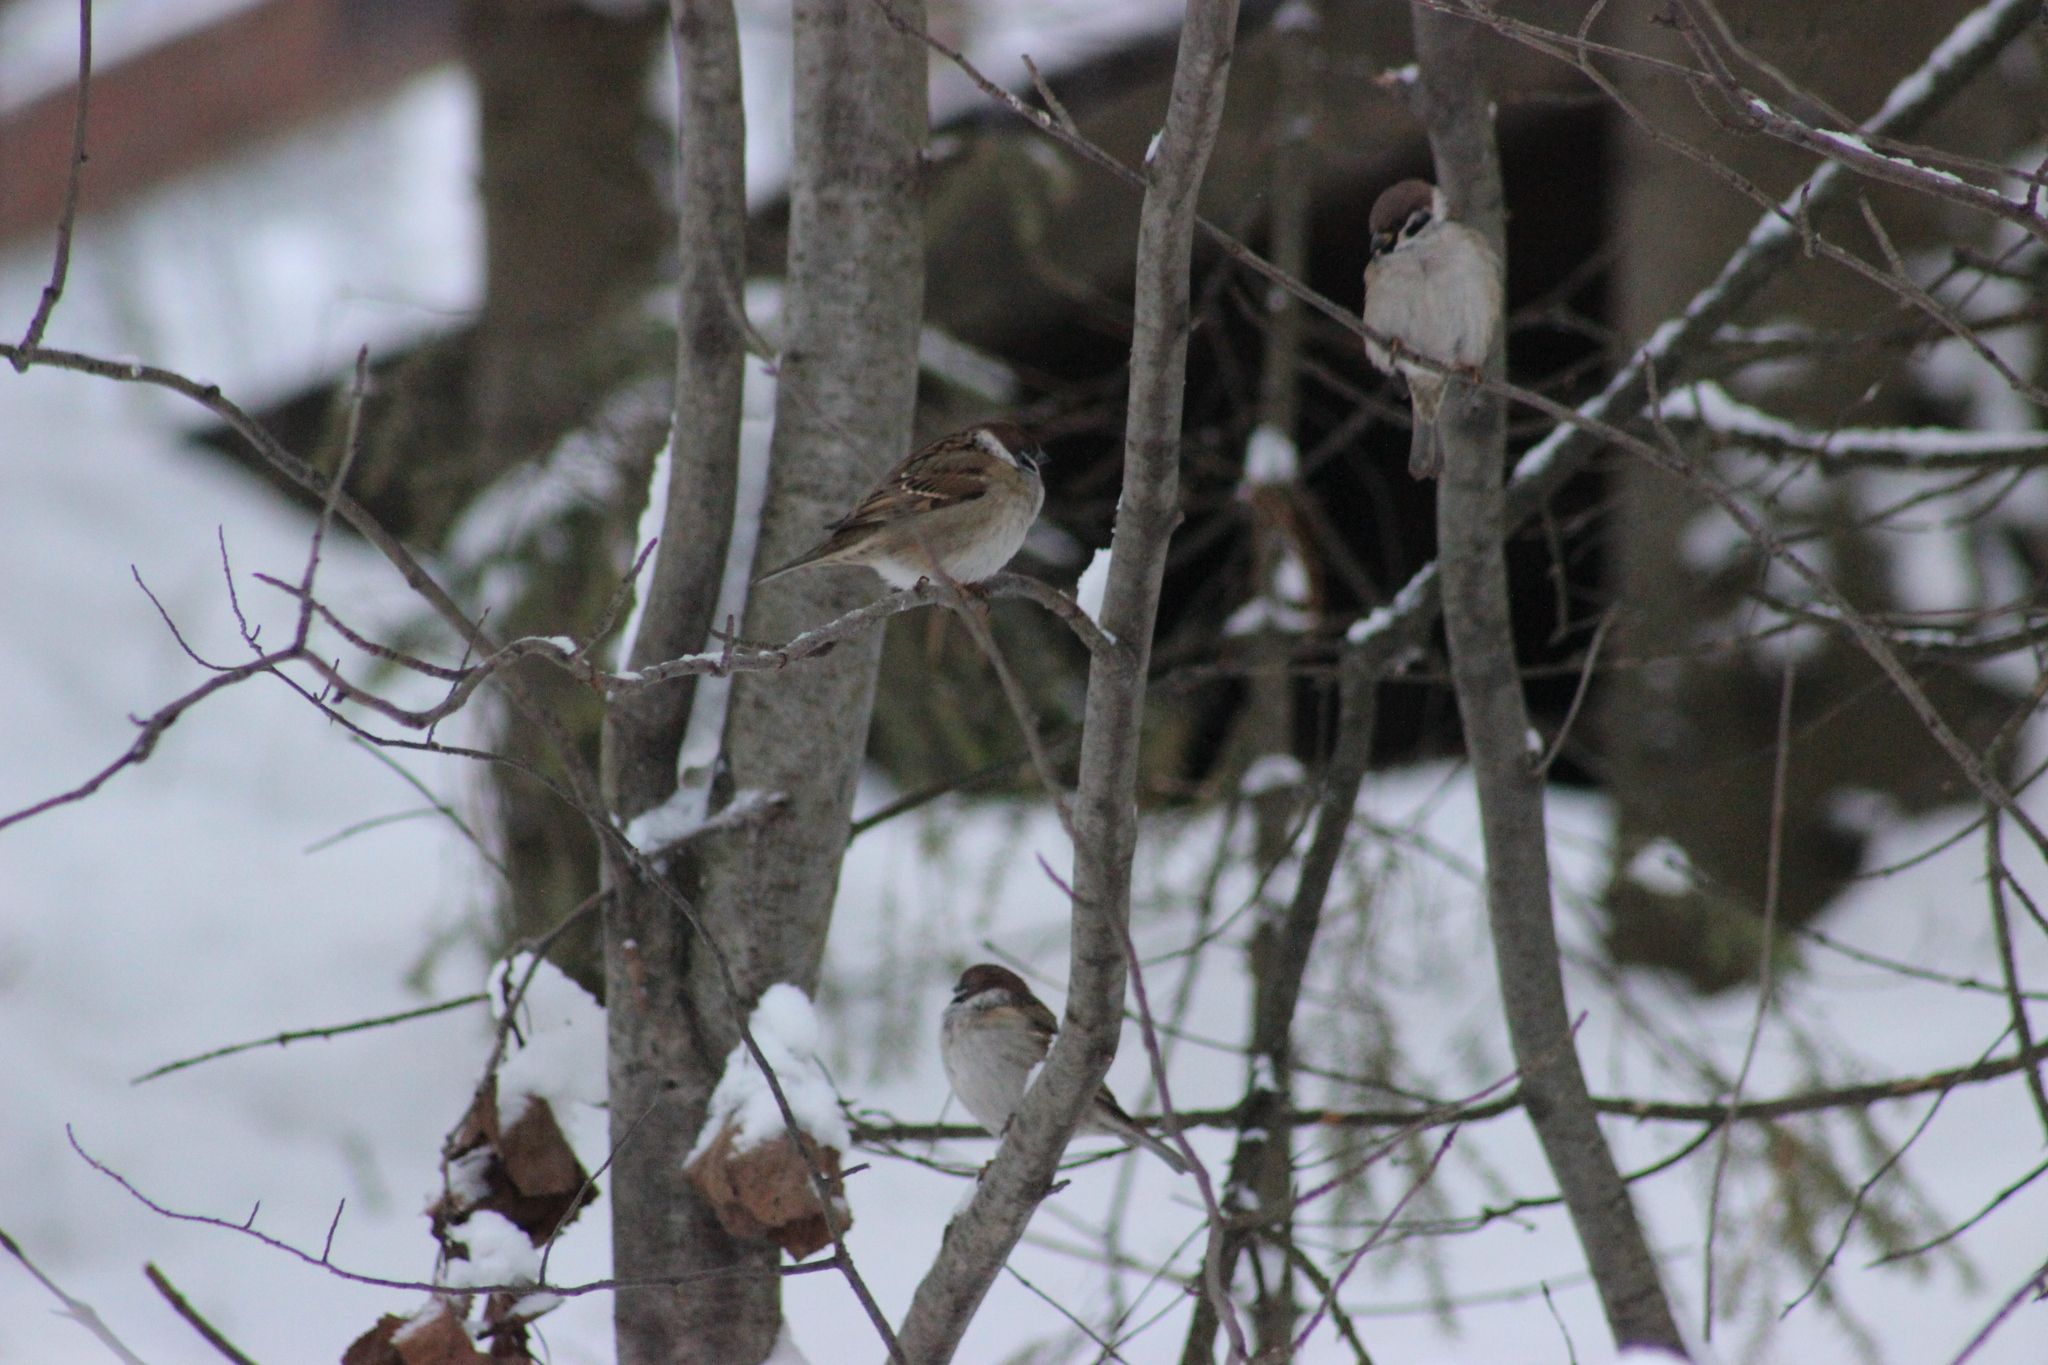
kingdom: Animalia
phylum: Chordata
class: Aves
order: Passeriformes
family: Passeridae
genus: Passer
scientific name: Passer montanus
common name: Eurasian tree sparrow
